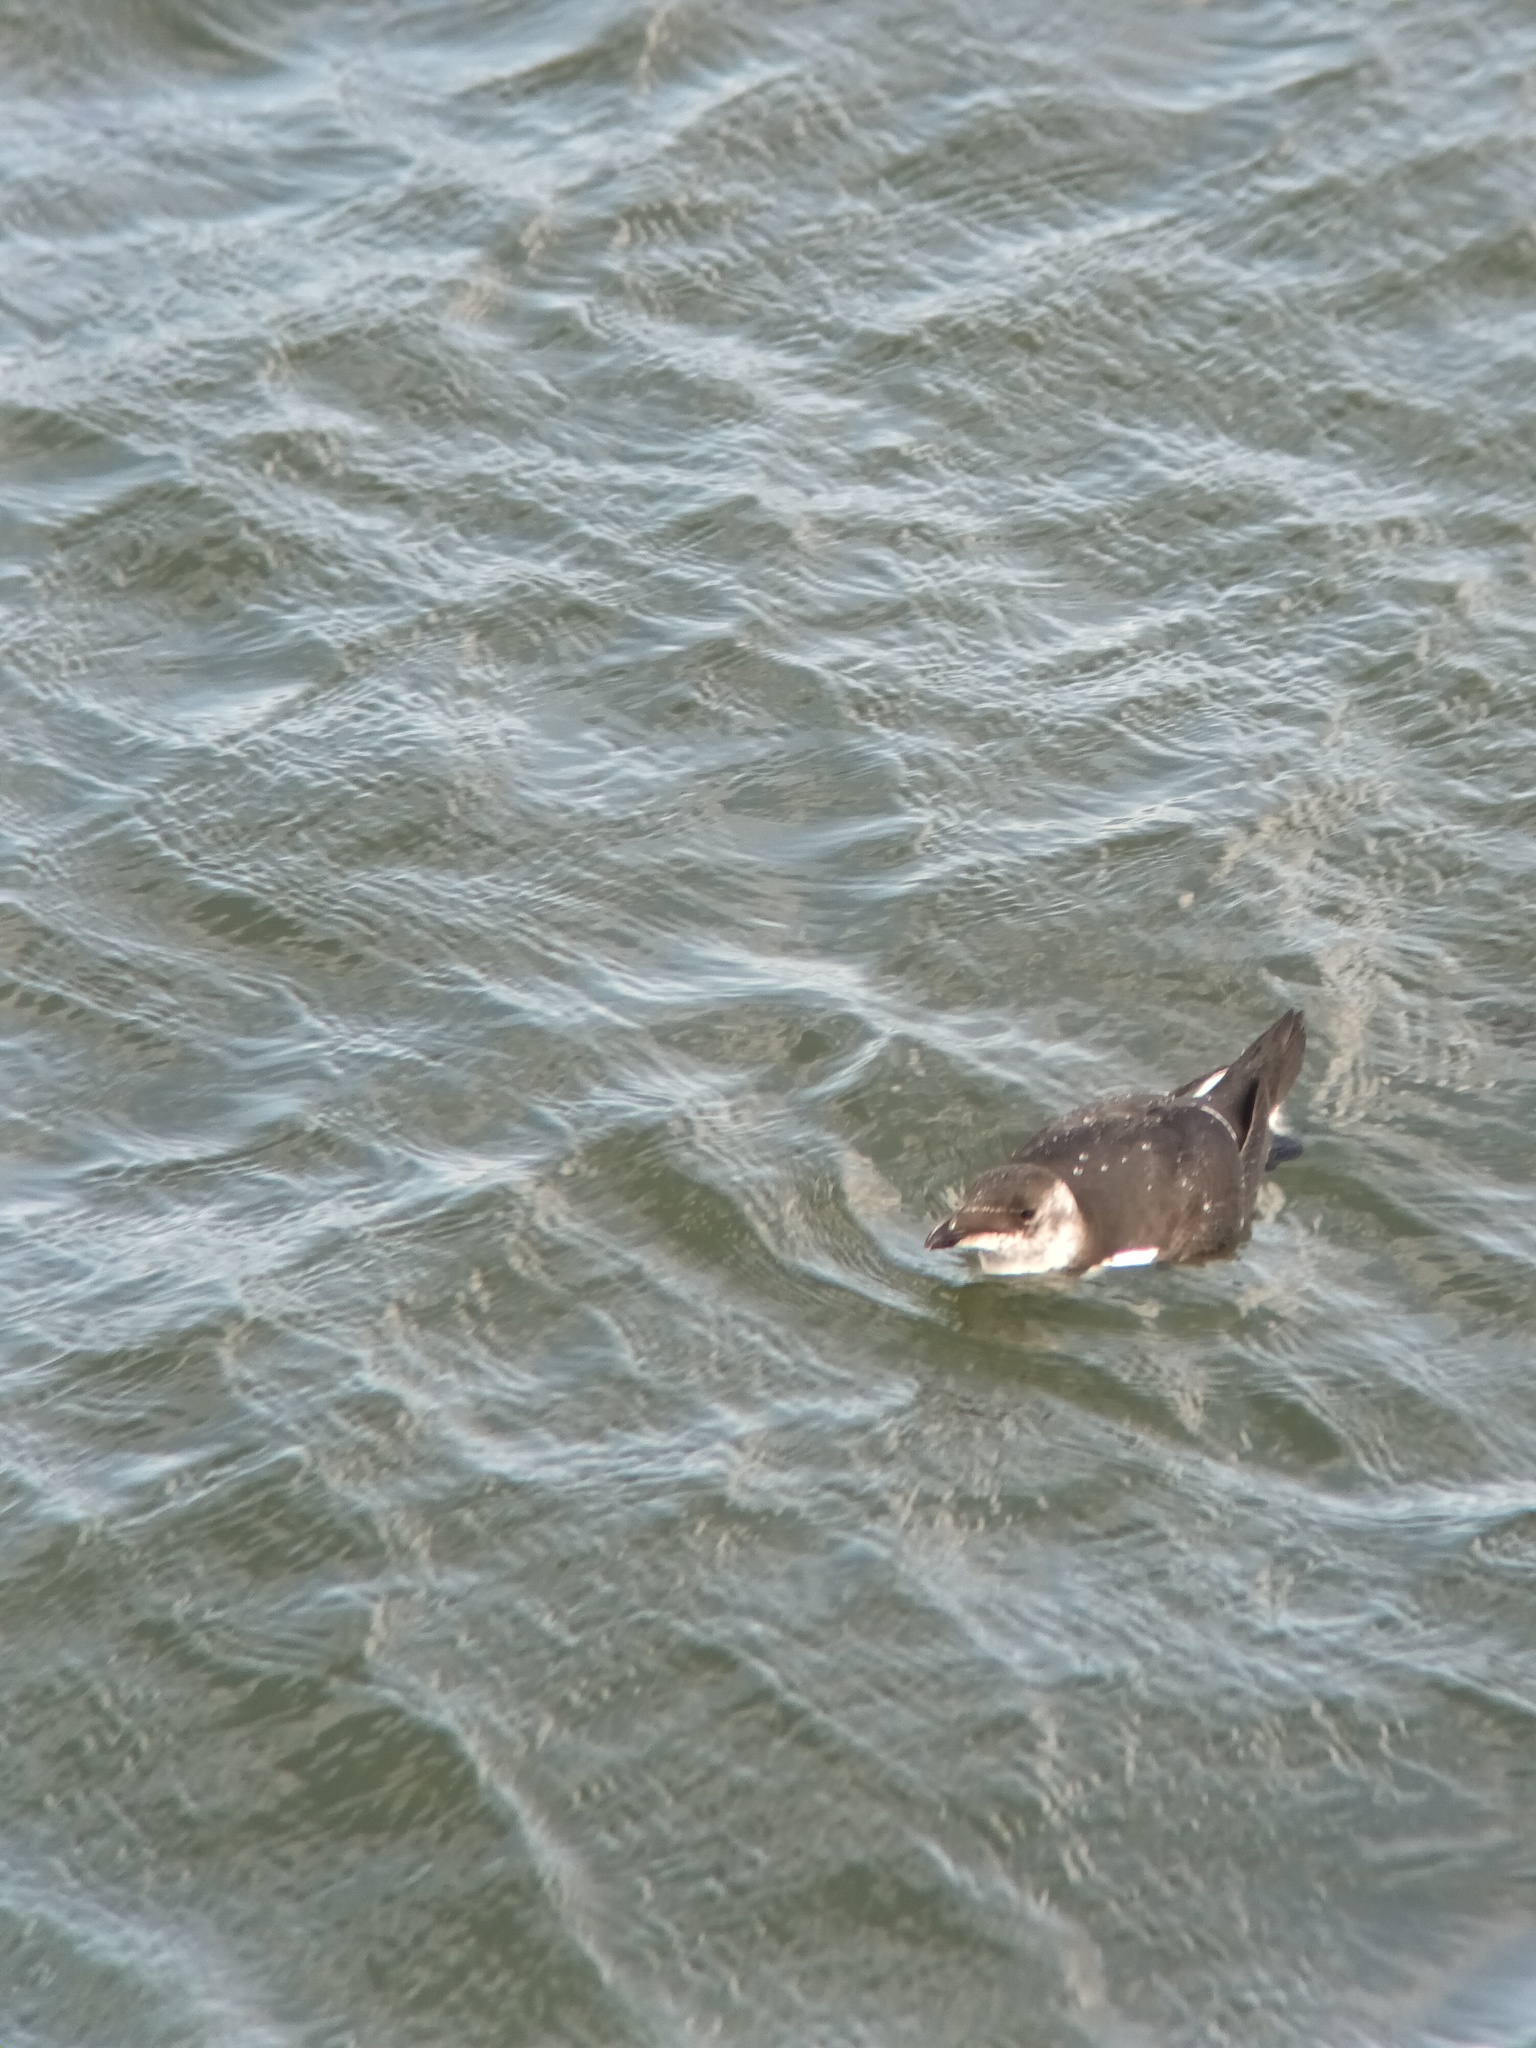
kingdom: Animalia
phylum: Chordata
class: Aves
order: Charadriiformes
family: Alcidae
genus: Alca
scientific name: Alca torda
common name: Razorbill
